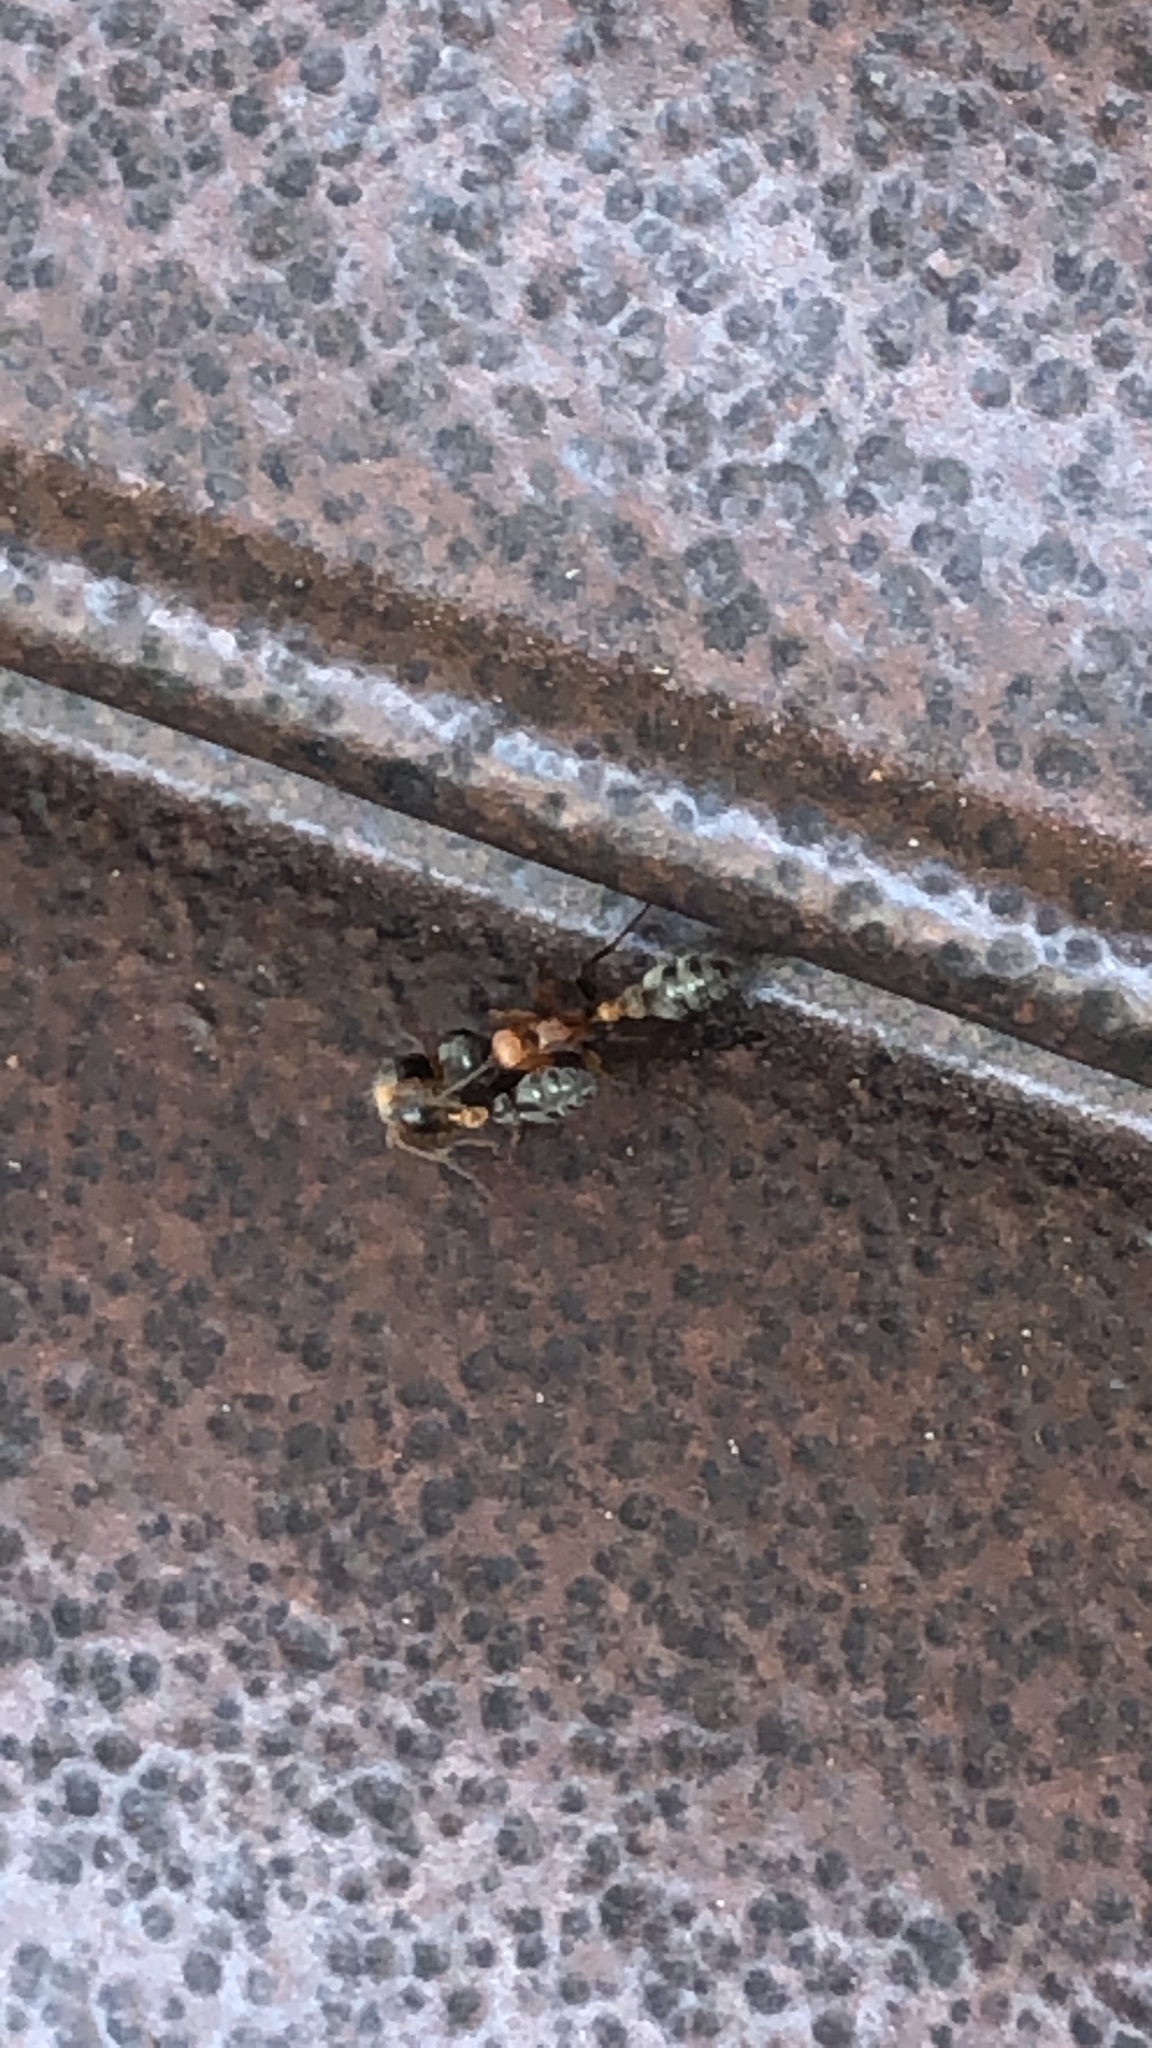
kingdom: Animalia
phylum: Arthropoda
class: Insecta
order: Hymenoptera
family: Formicidae
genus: Pseudomyrmex
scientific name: Pseudomyrmex gracilis
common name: Graceful twig ant
